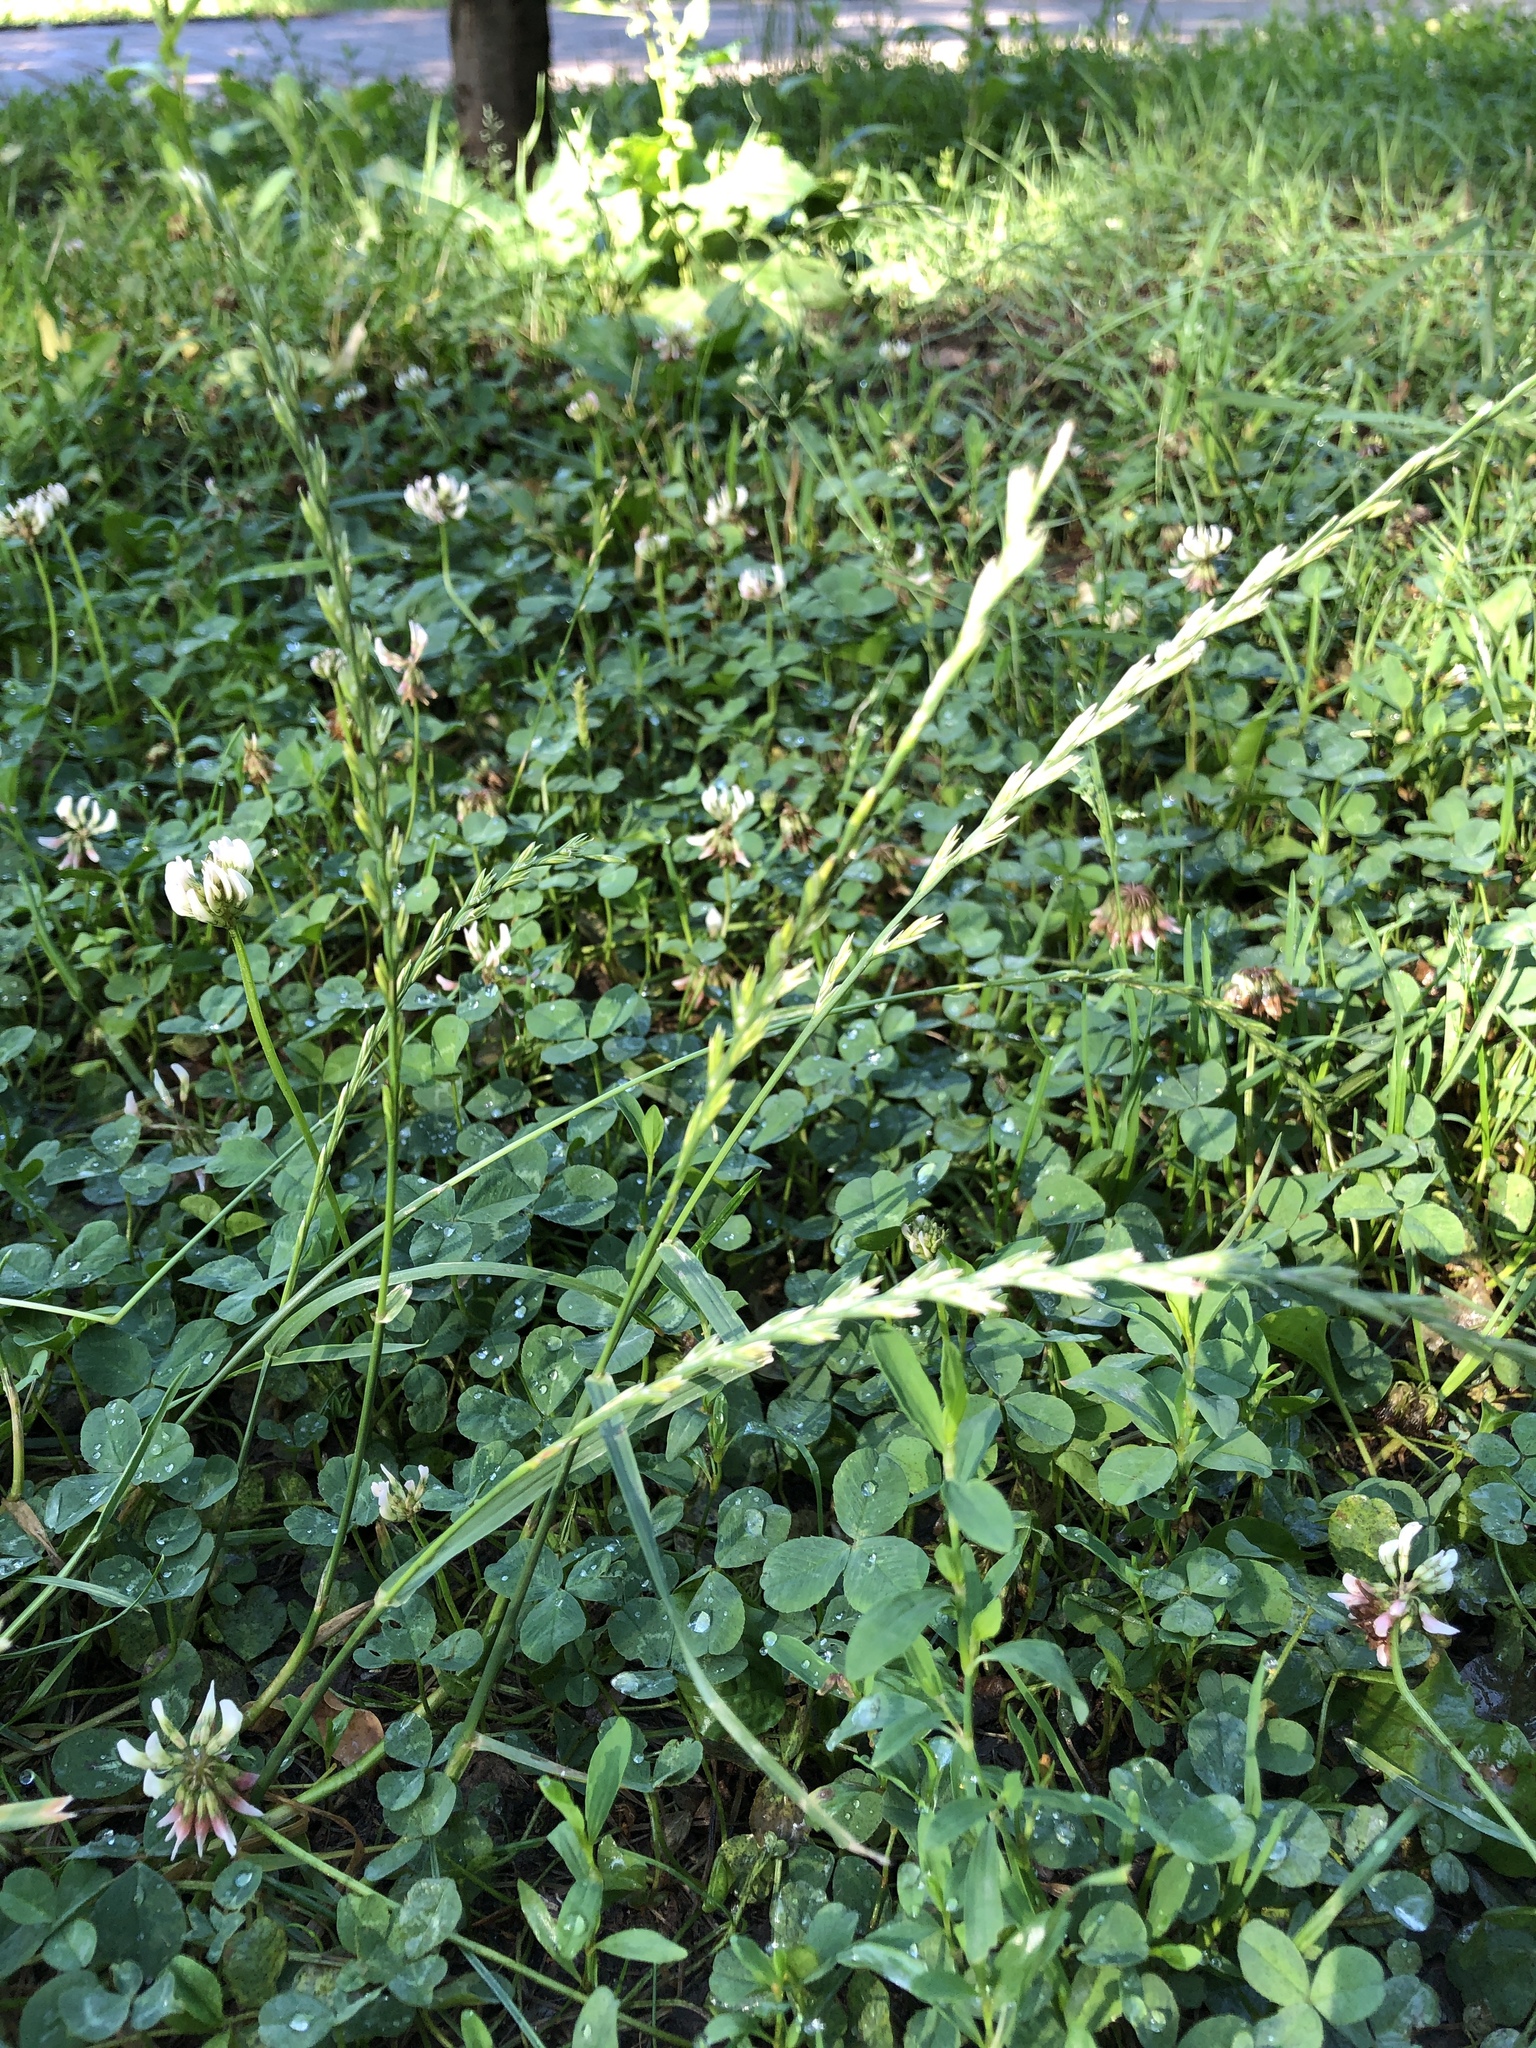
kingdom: Plantae
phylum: Tracheophyta
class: Liliopsida
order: Poales
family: Poaceae
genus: Lolium
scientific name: Lolium perenne
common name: Perennial ryegrass
